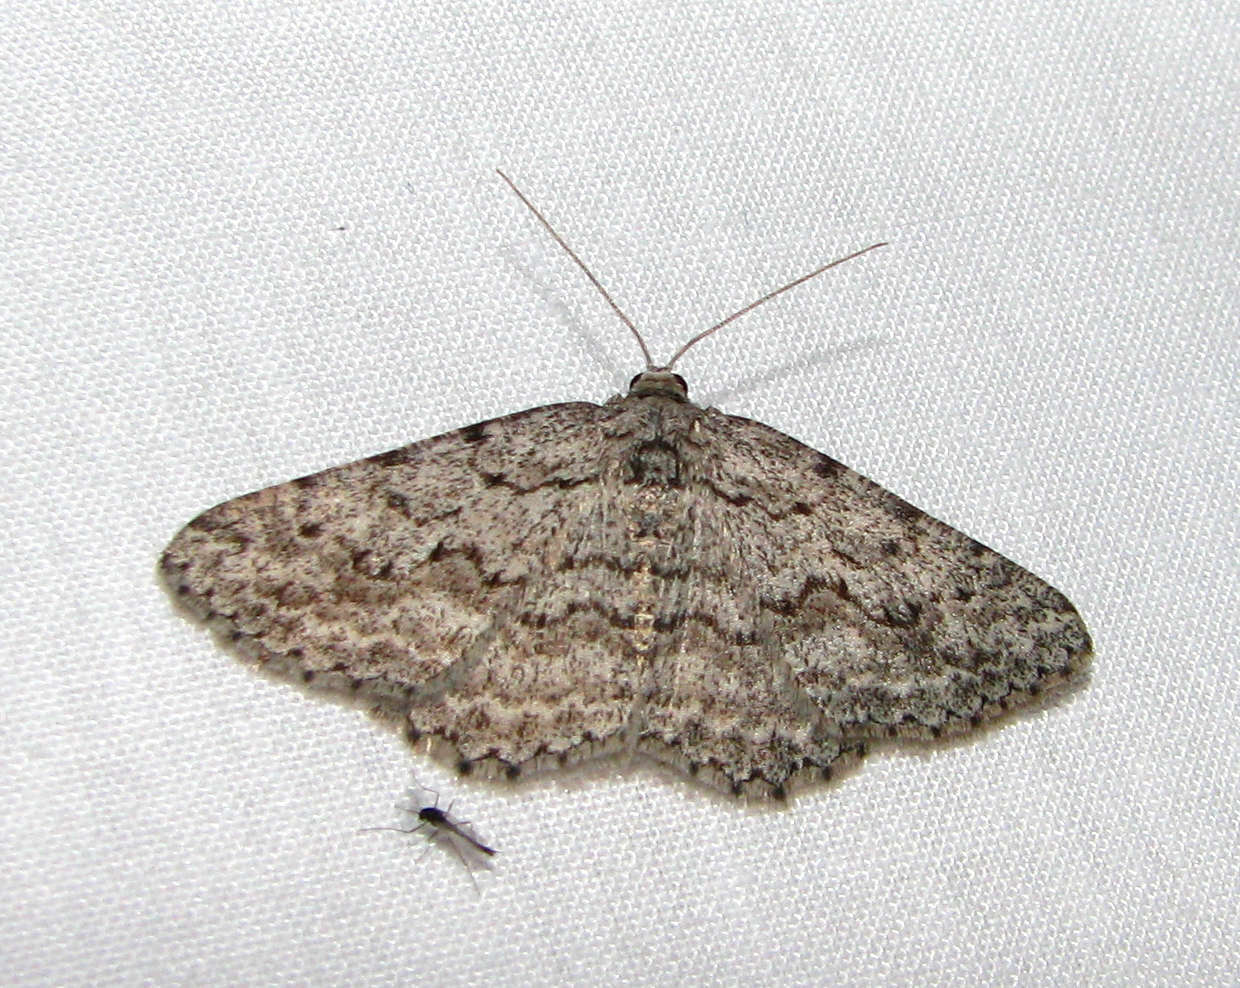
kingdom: Animalia
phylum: Arthropoda
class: Insecta
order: Lepidoptera
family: Geometridae
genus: Psilosticha
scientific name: Psilosticha absorpta
